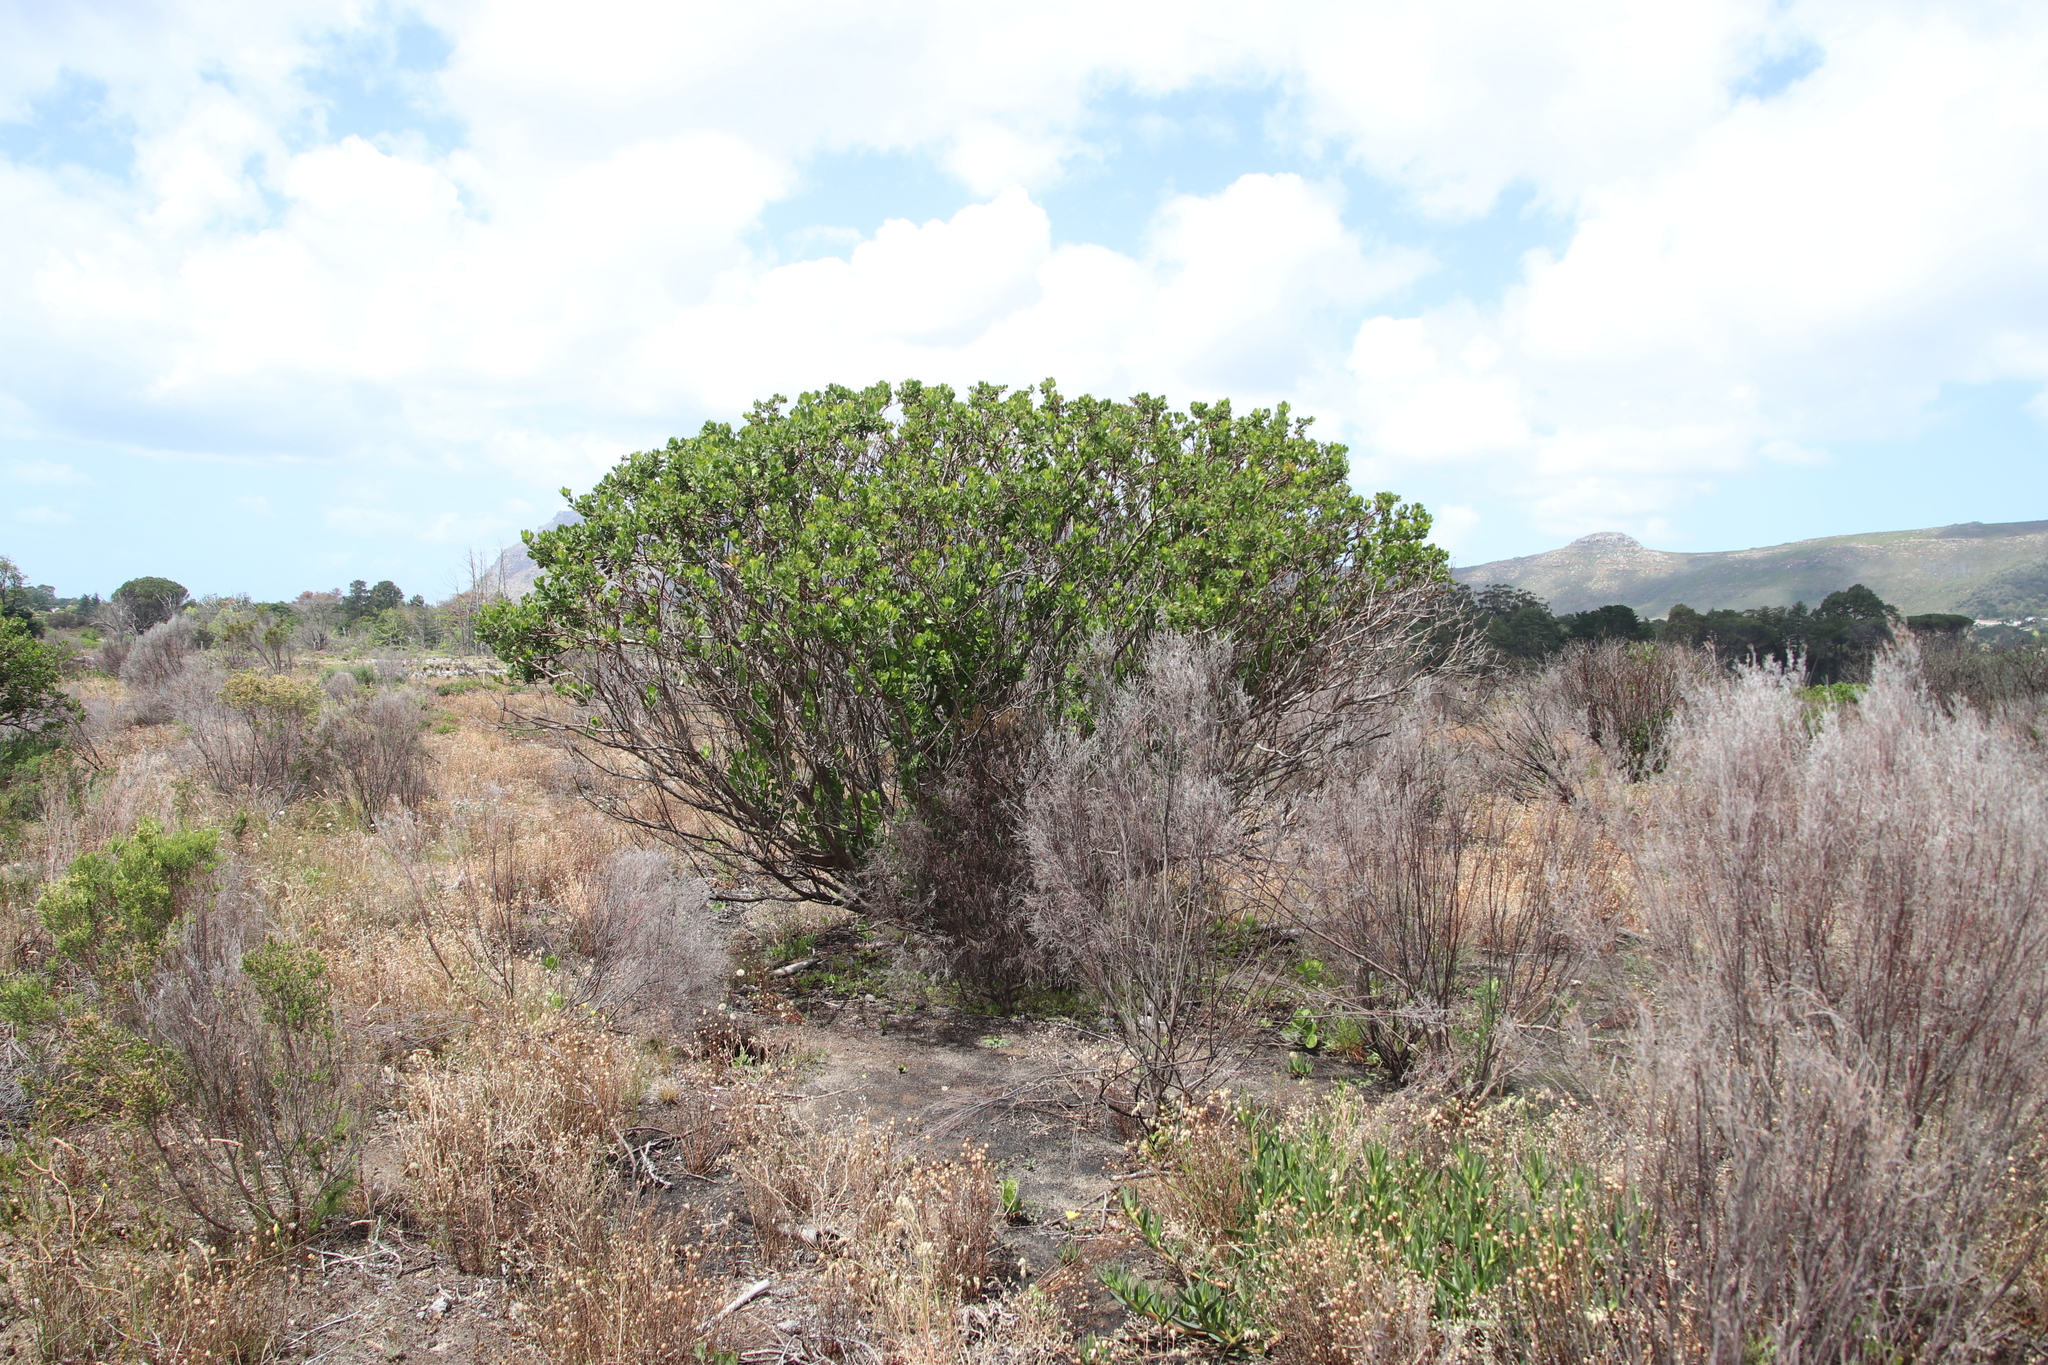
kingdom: Plantae
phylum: Tracheophyta
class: Magnoliopsida
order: Asterales
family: Asteraceae
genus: Osteospermum
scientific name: Osteospermum moniliferum
